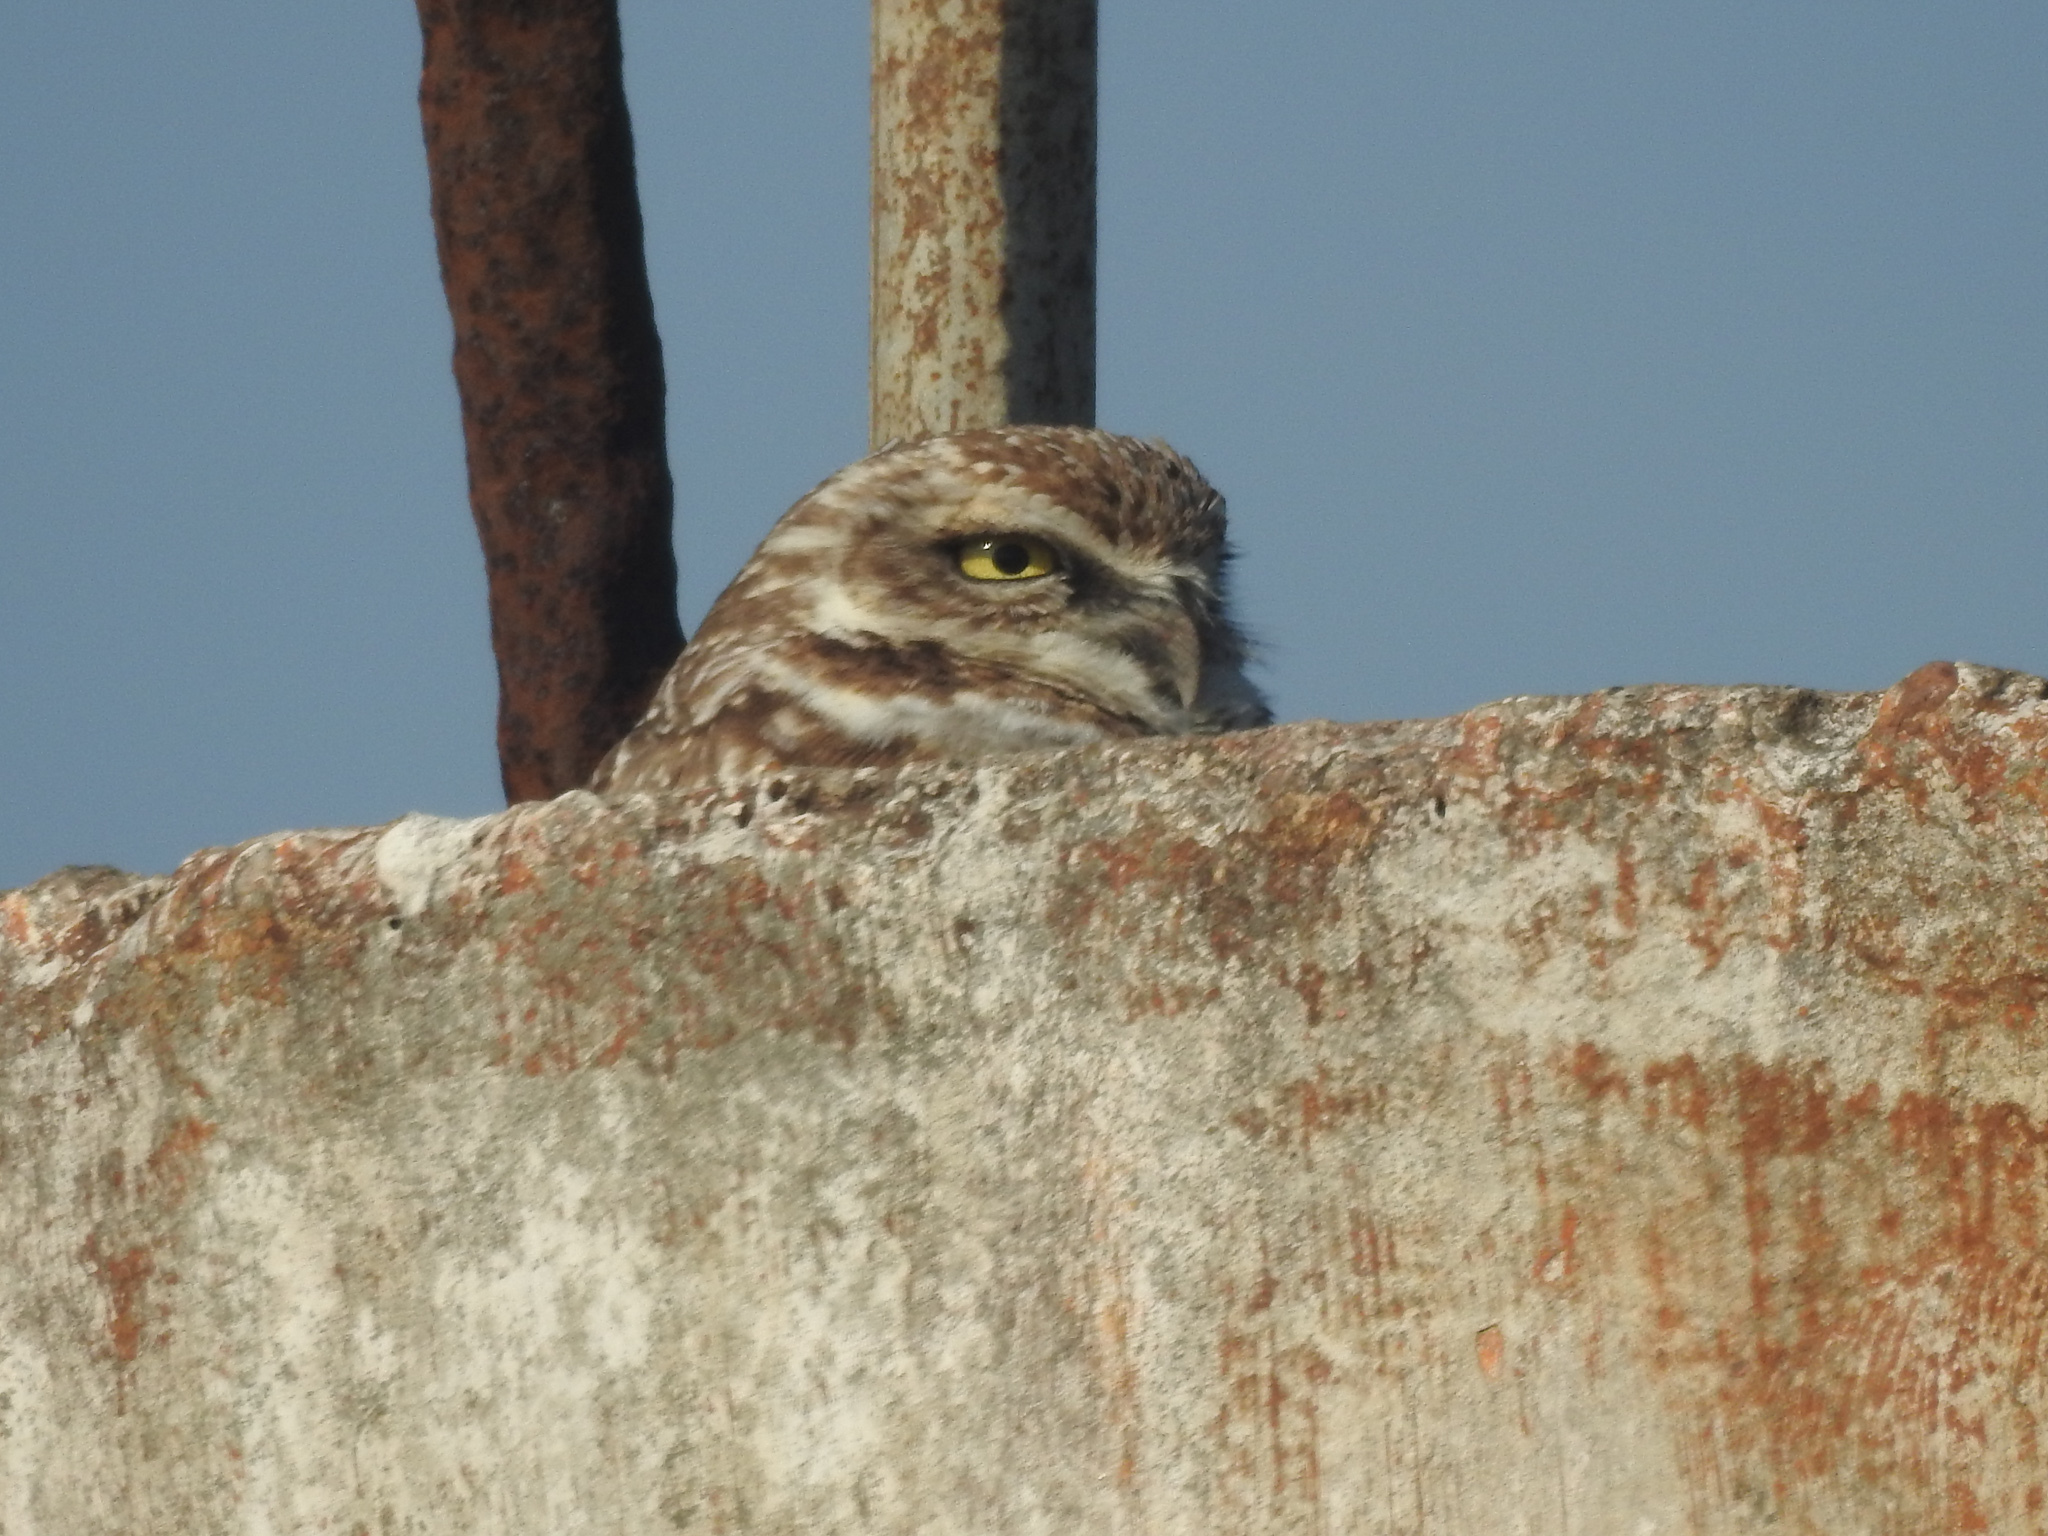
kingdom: Animalia
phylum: Chordata
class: Aves
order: Strigiformes
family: Strigidae
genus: Athene
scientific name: Athene cunicularia
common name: Burrowing owl
